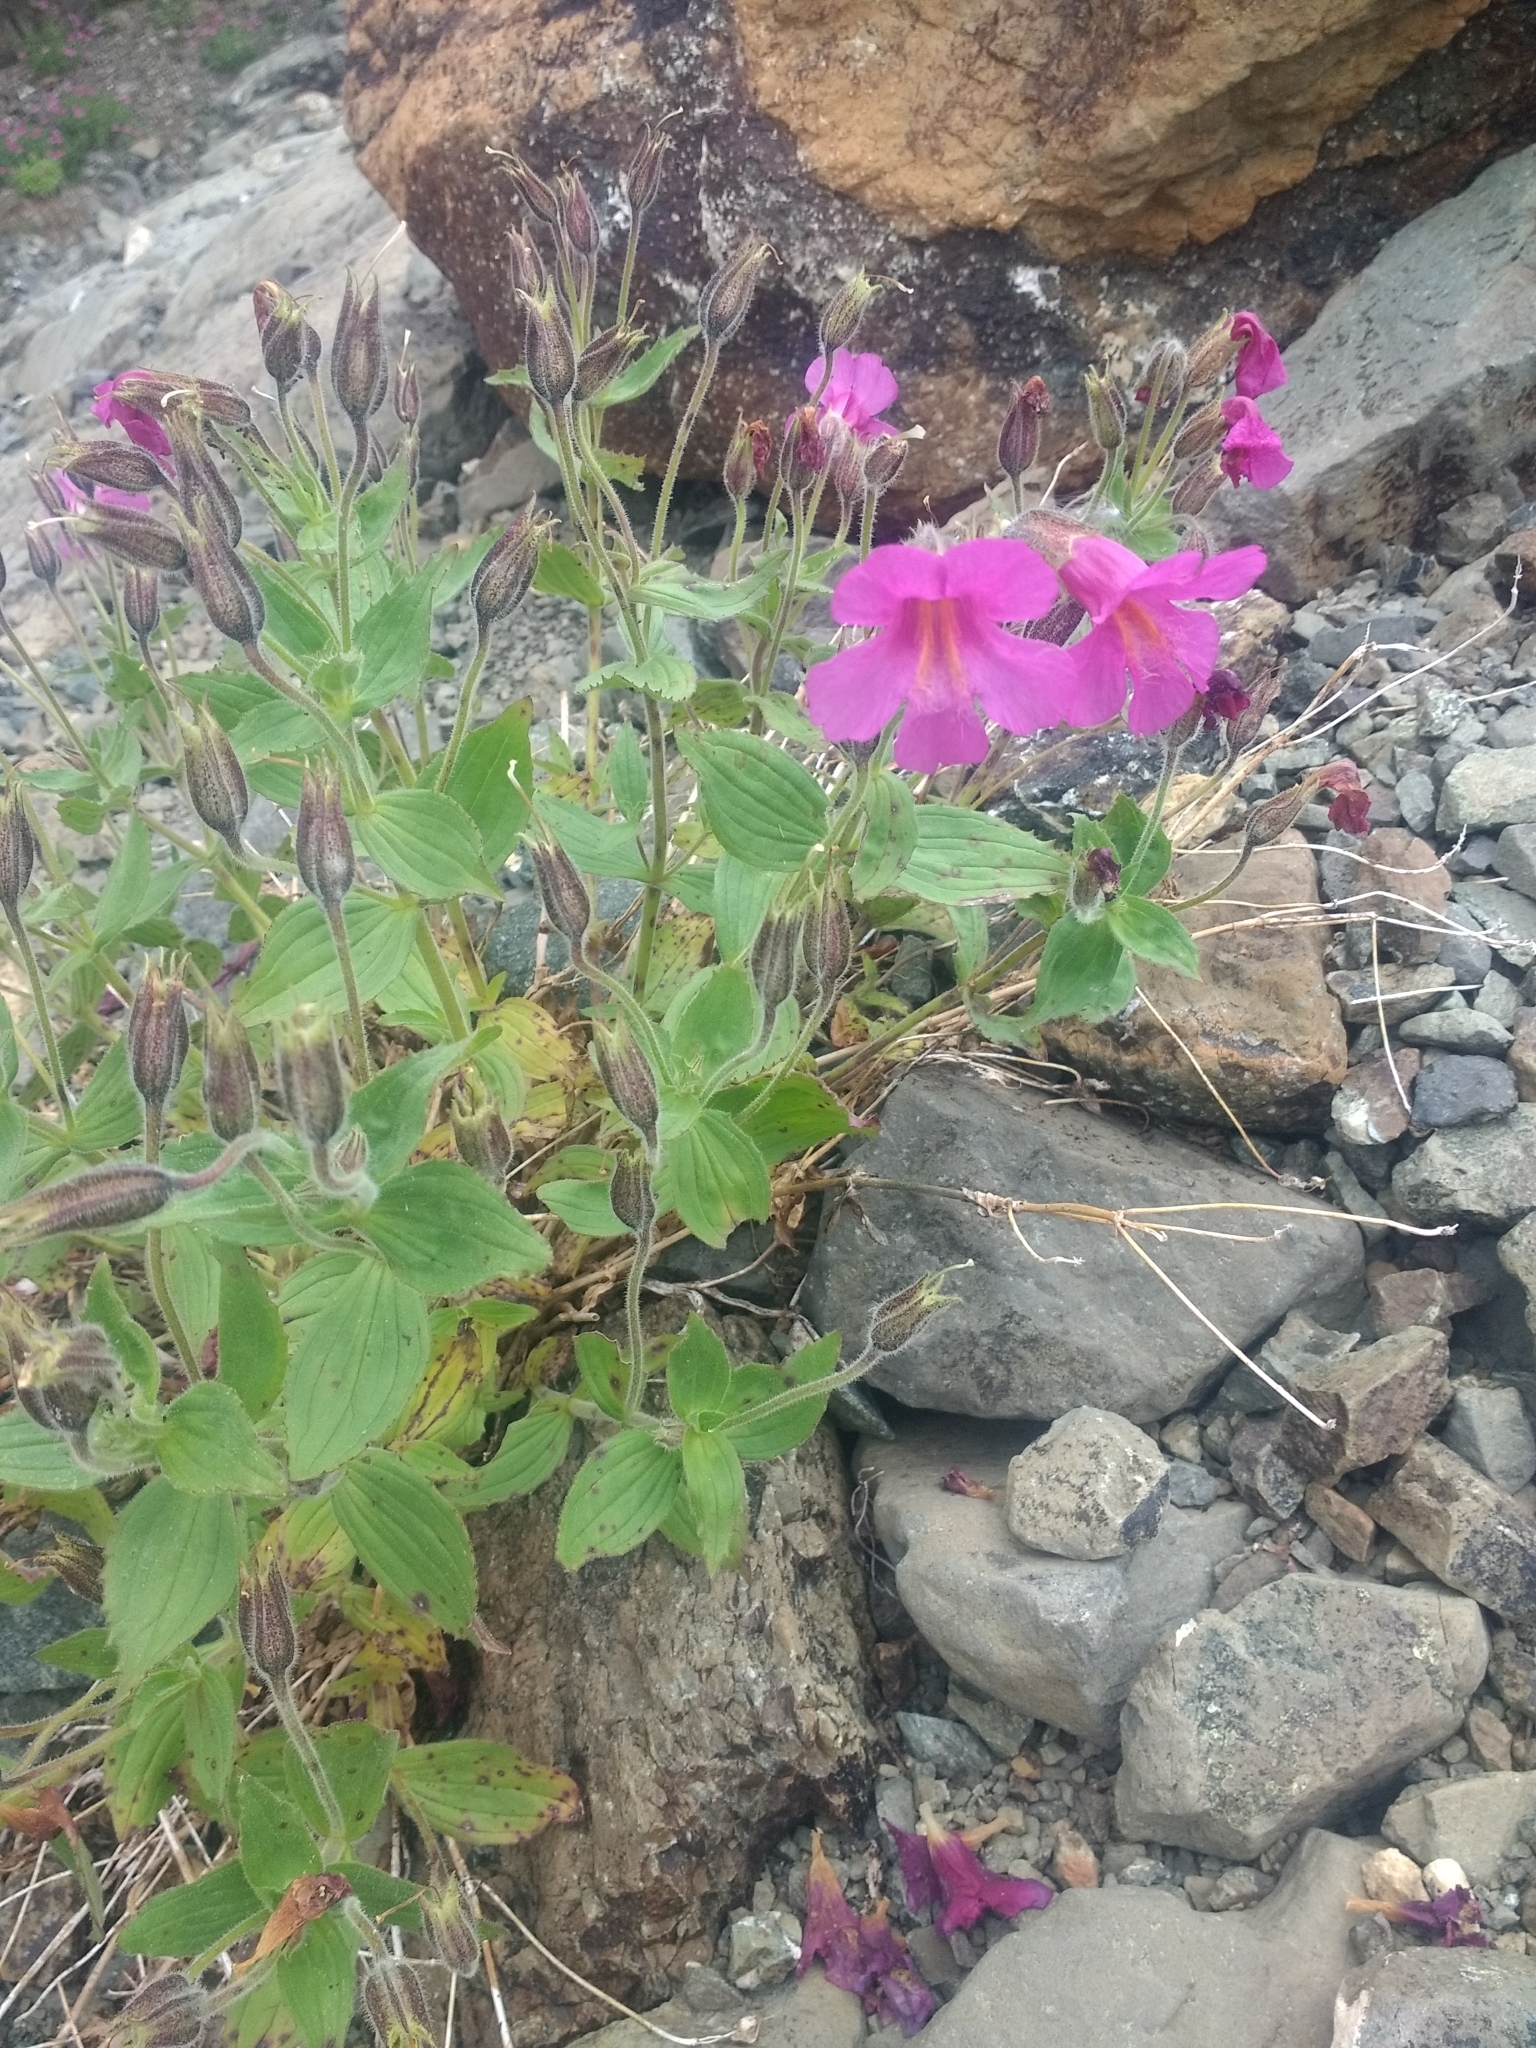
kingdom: Plantae
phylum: Tracheophyta
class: Magnoliopsida
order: Lamiales
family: Phrymaceae
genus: Erythranthe
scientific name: Erythranthe lewisii
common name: Lewis's monkey-flower
